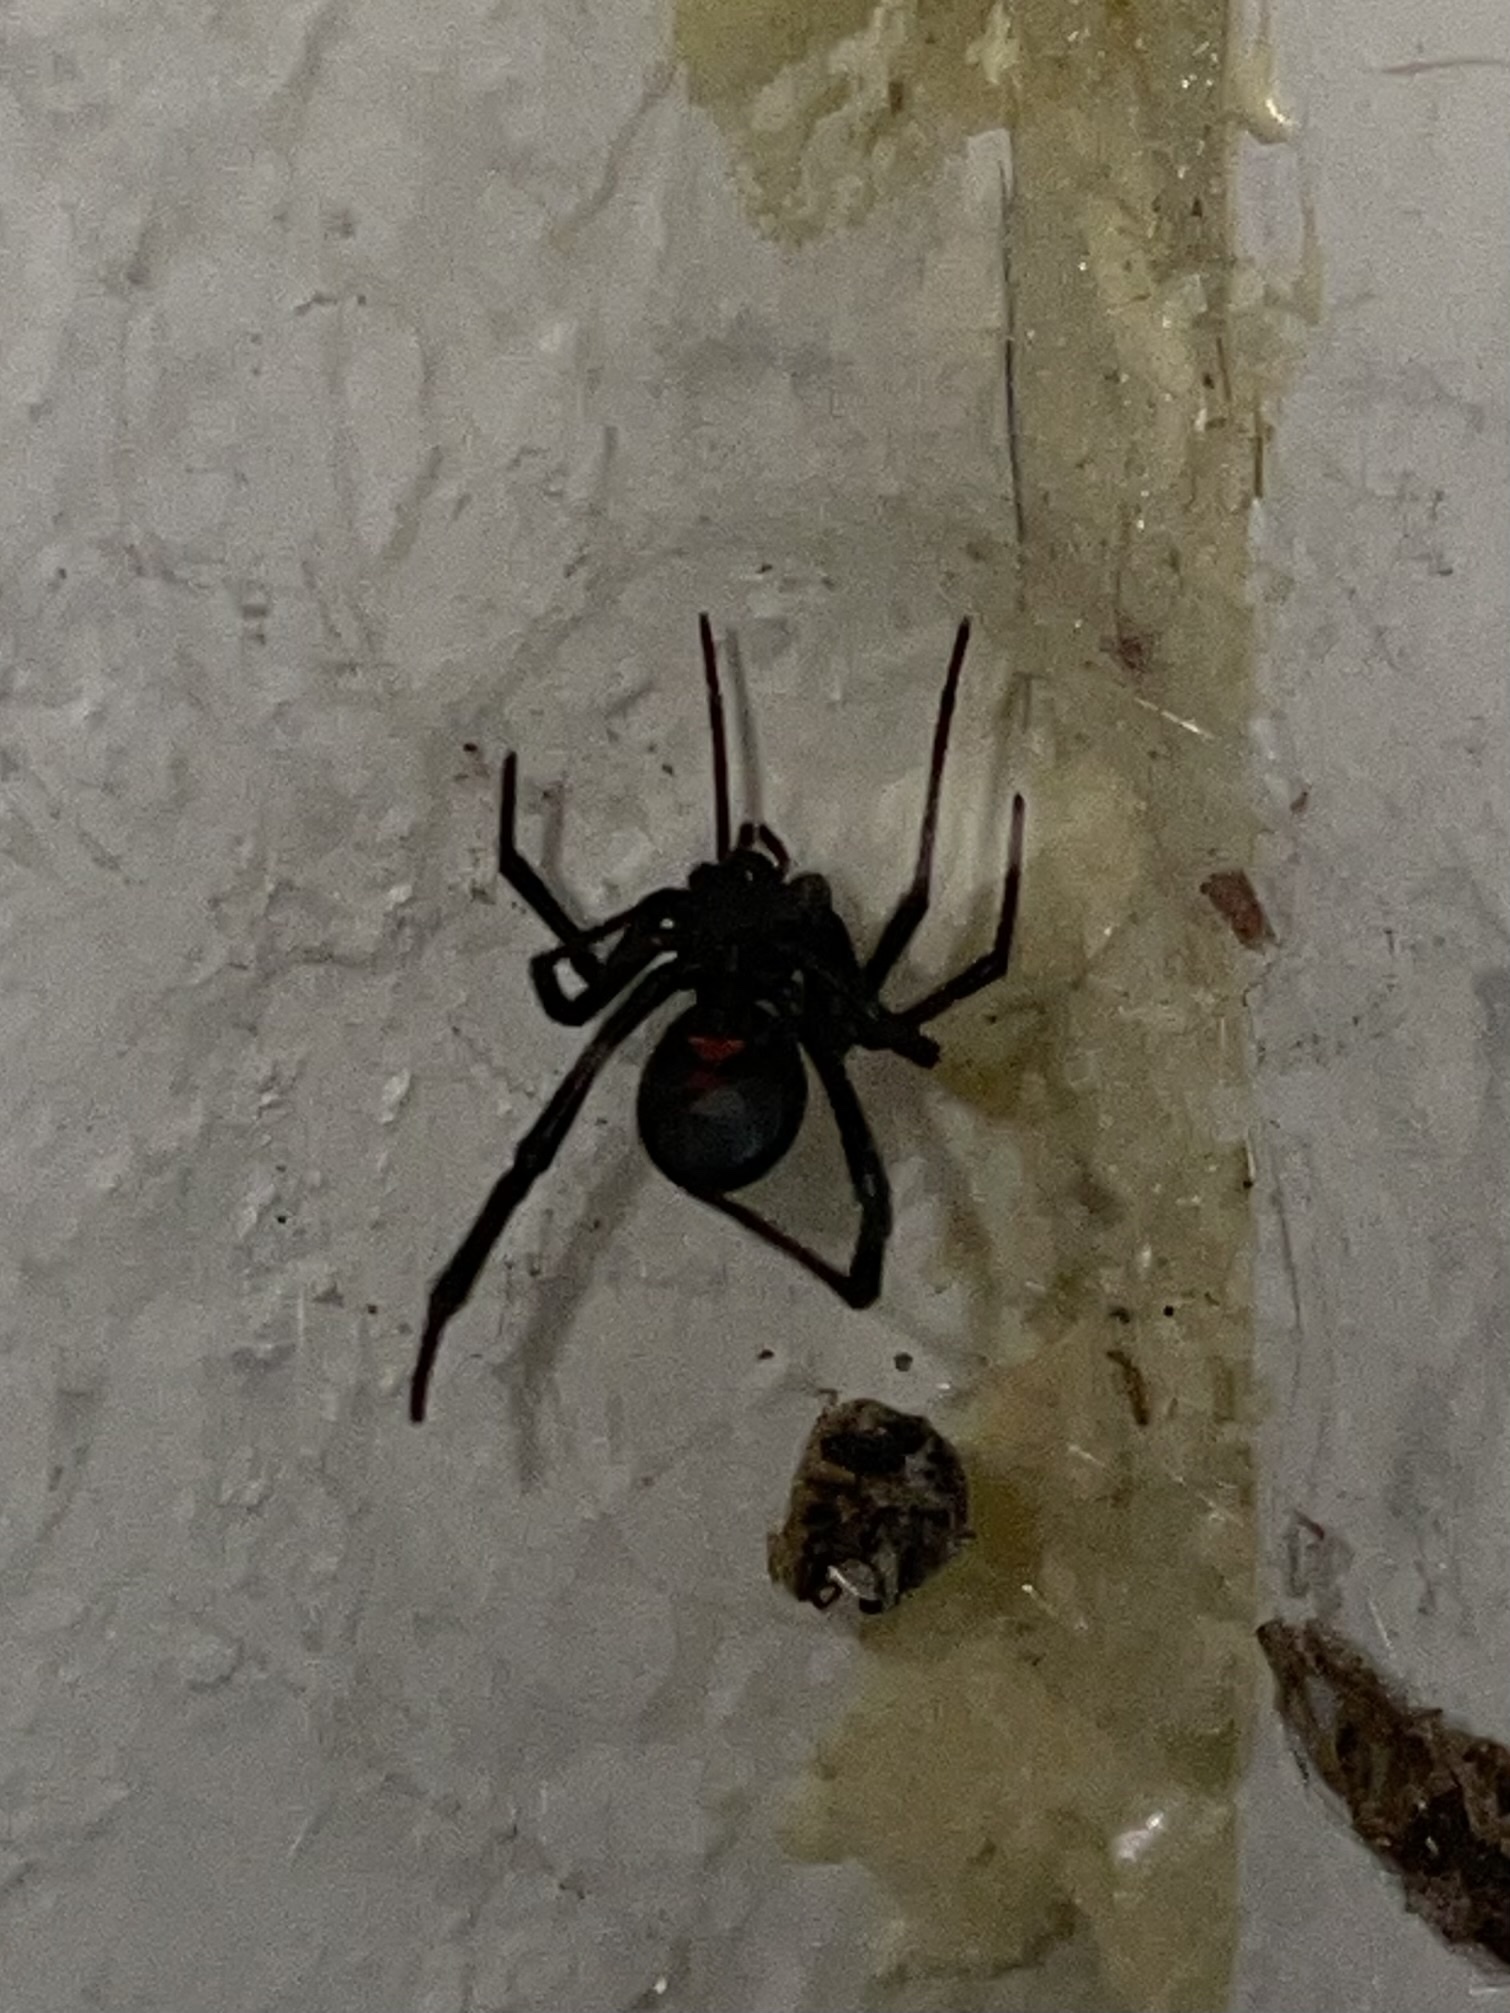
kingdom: Animalia
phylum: Arthropoda
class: Arachnida
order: Araneae
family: Theridiidae
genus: Latrodectus
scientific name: Latrodectus hesperus
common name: Western black widow
